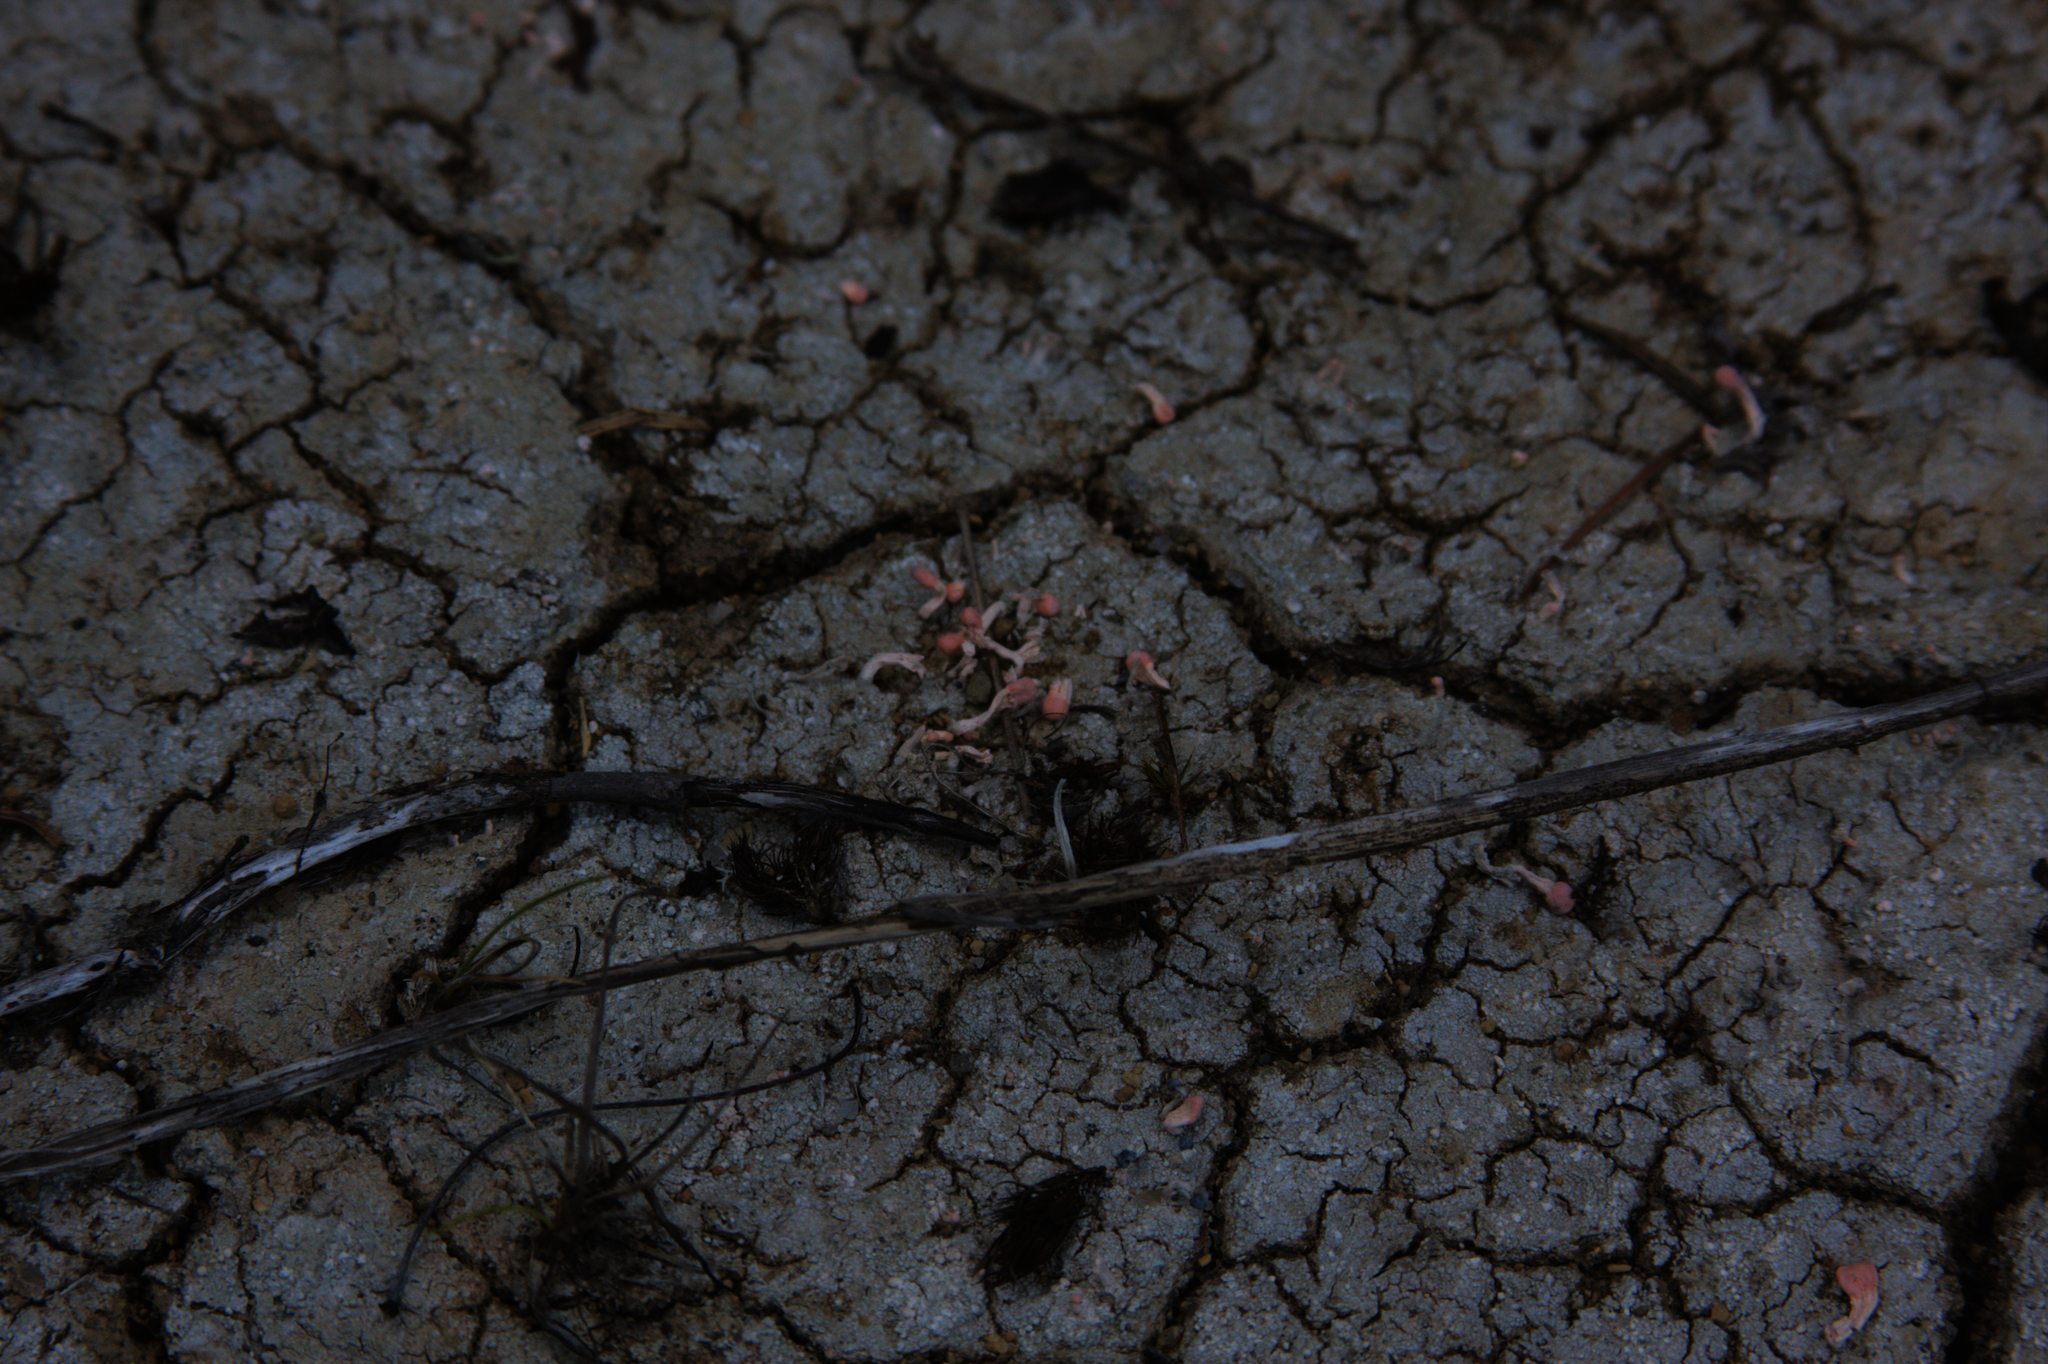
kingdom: Fungi
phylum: Ascomycota
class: Lecanoromycetes
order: Pertusariales
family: Icmadophilaceae
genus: Dibaeis
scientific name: Dibaeis baeomyces
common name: Pink earth lichen
